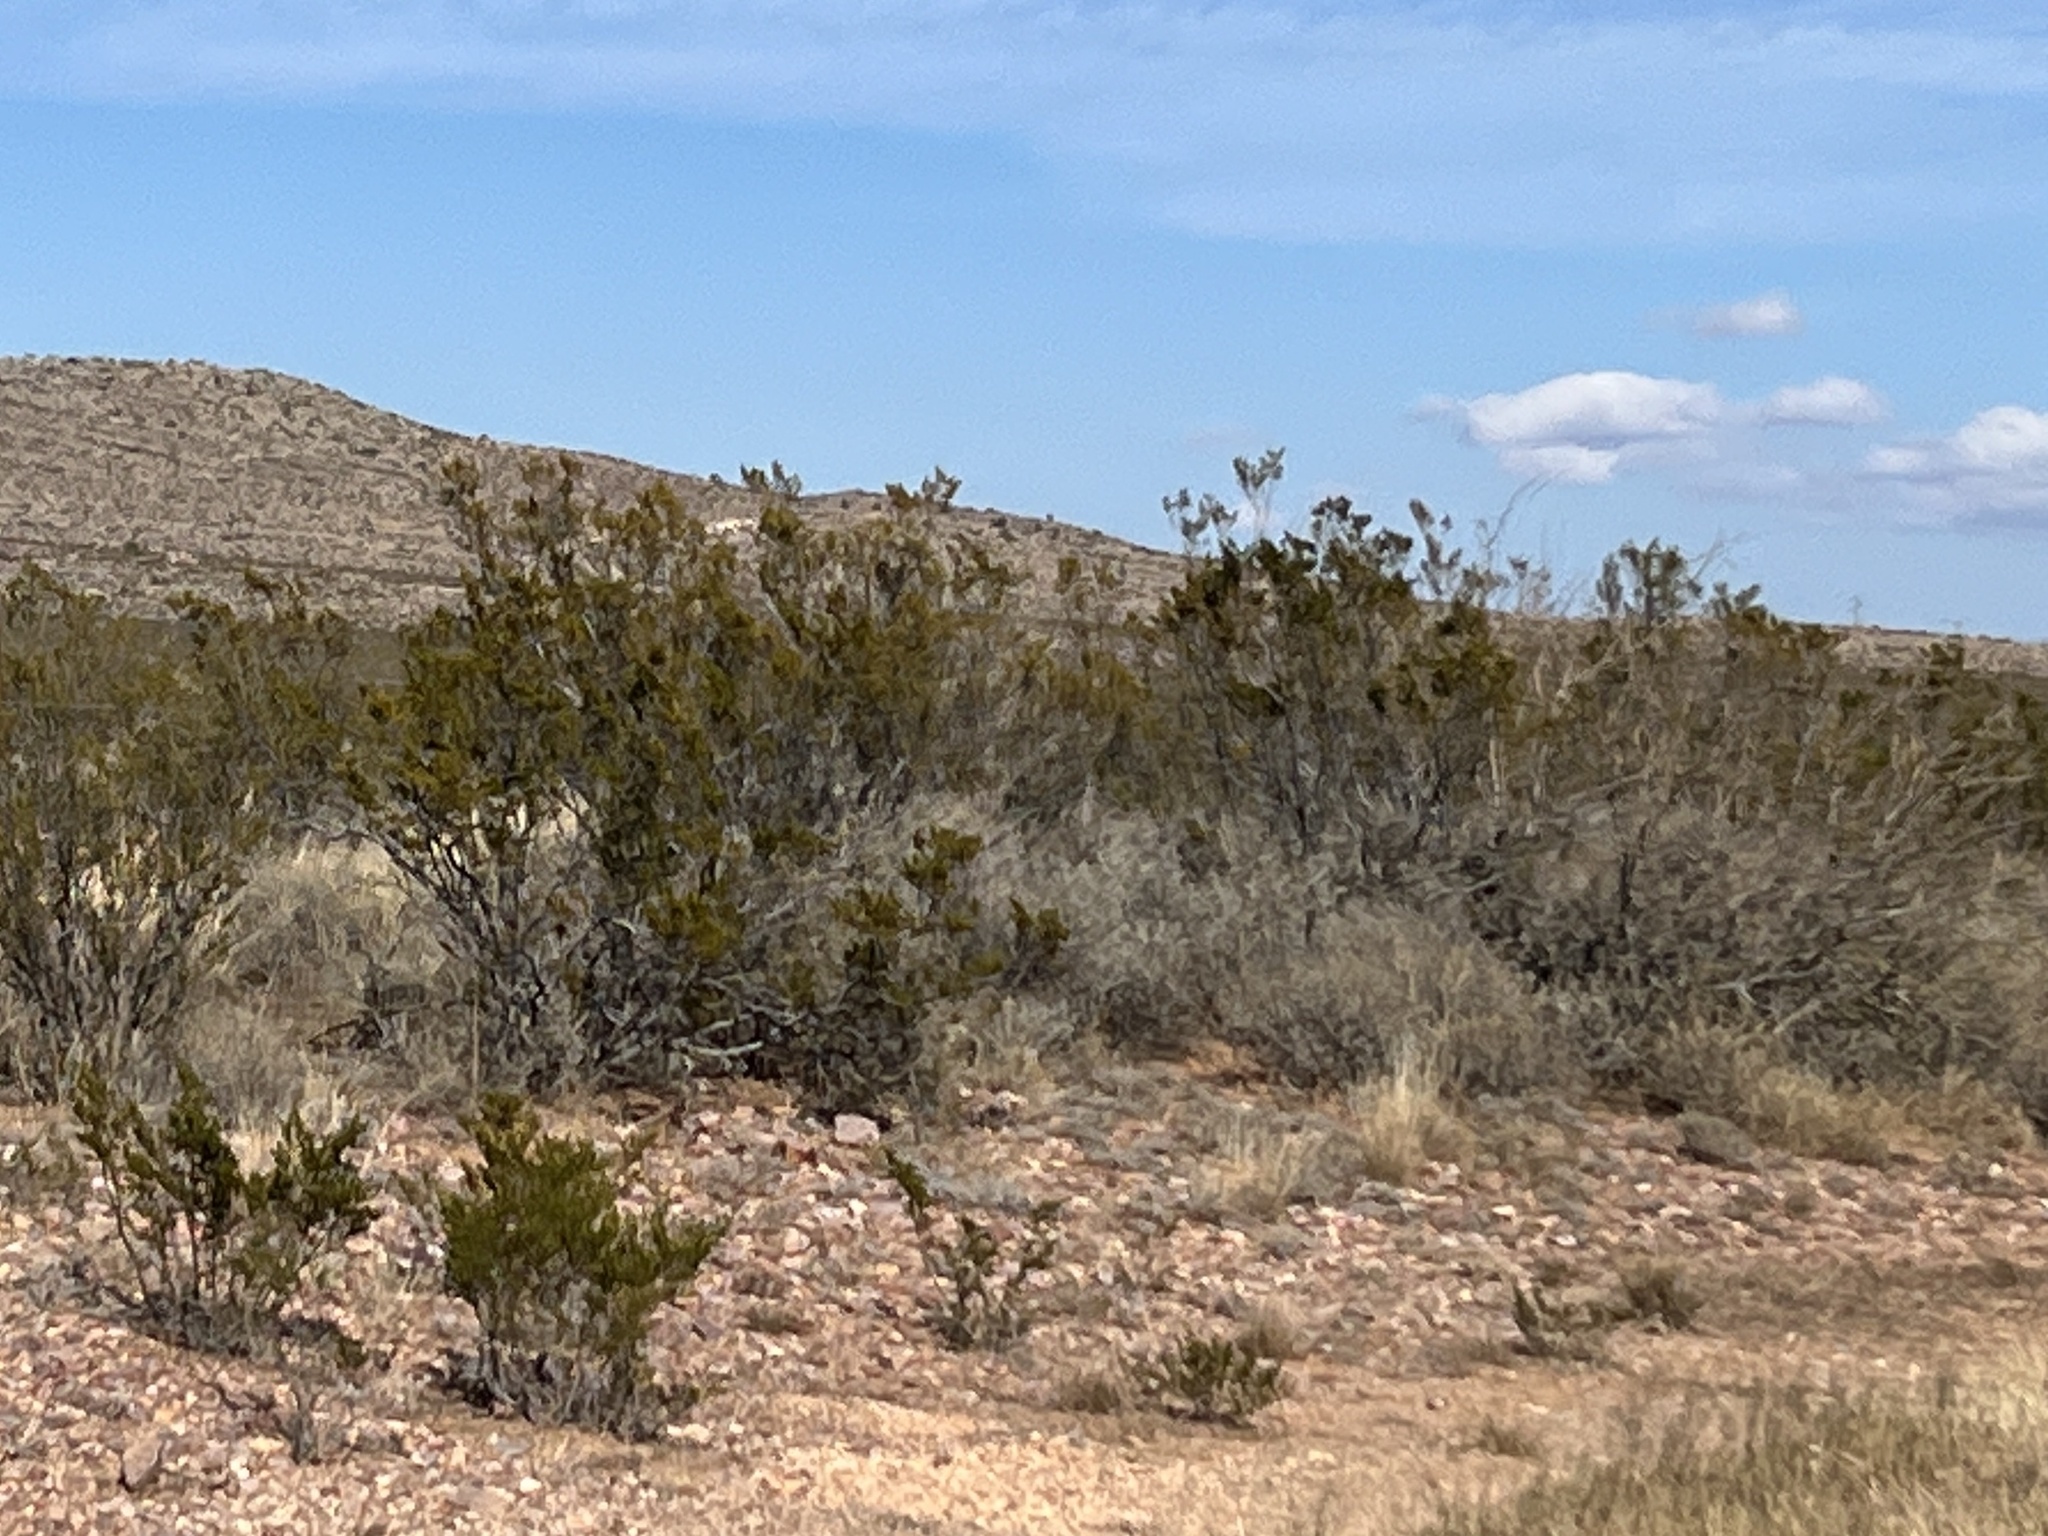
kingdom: Plantae
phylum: Tracheophyta
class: Magnoliopsida
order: Zygophyllales
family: Zygophyllaceae
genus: Larrea
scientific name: Larrea tridentata
